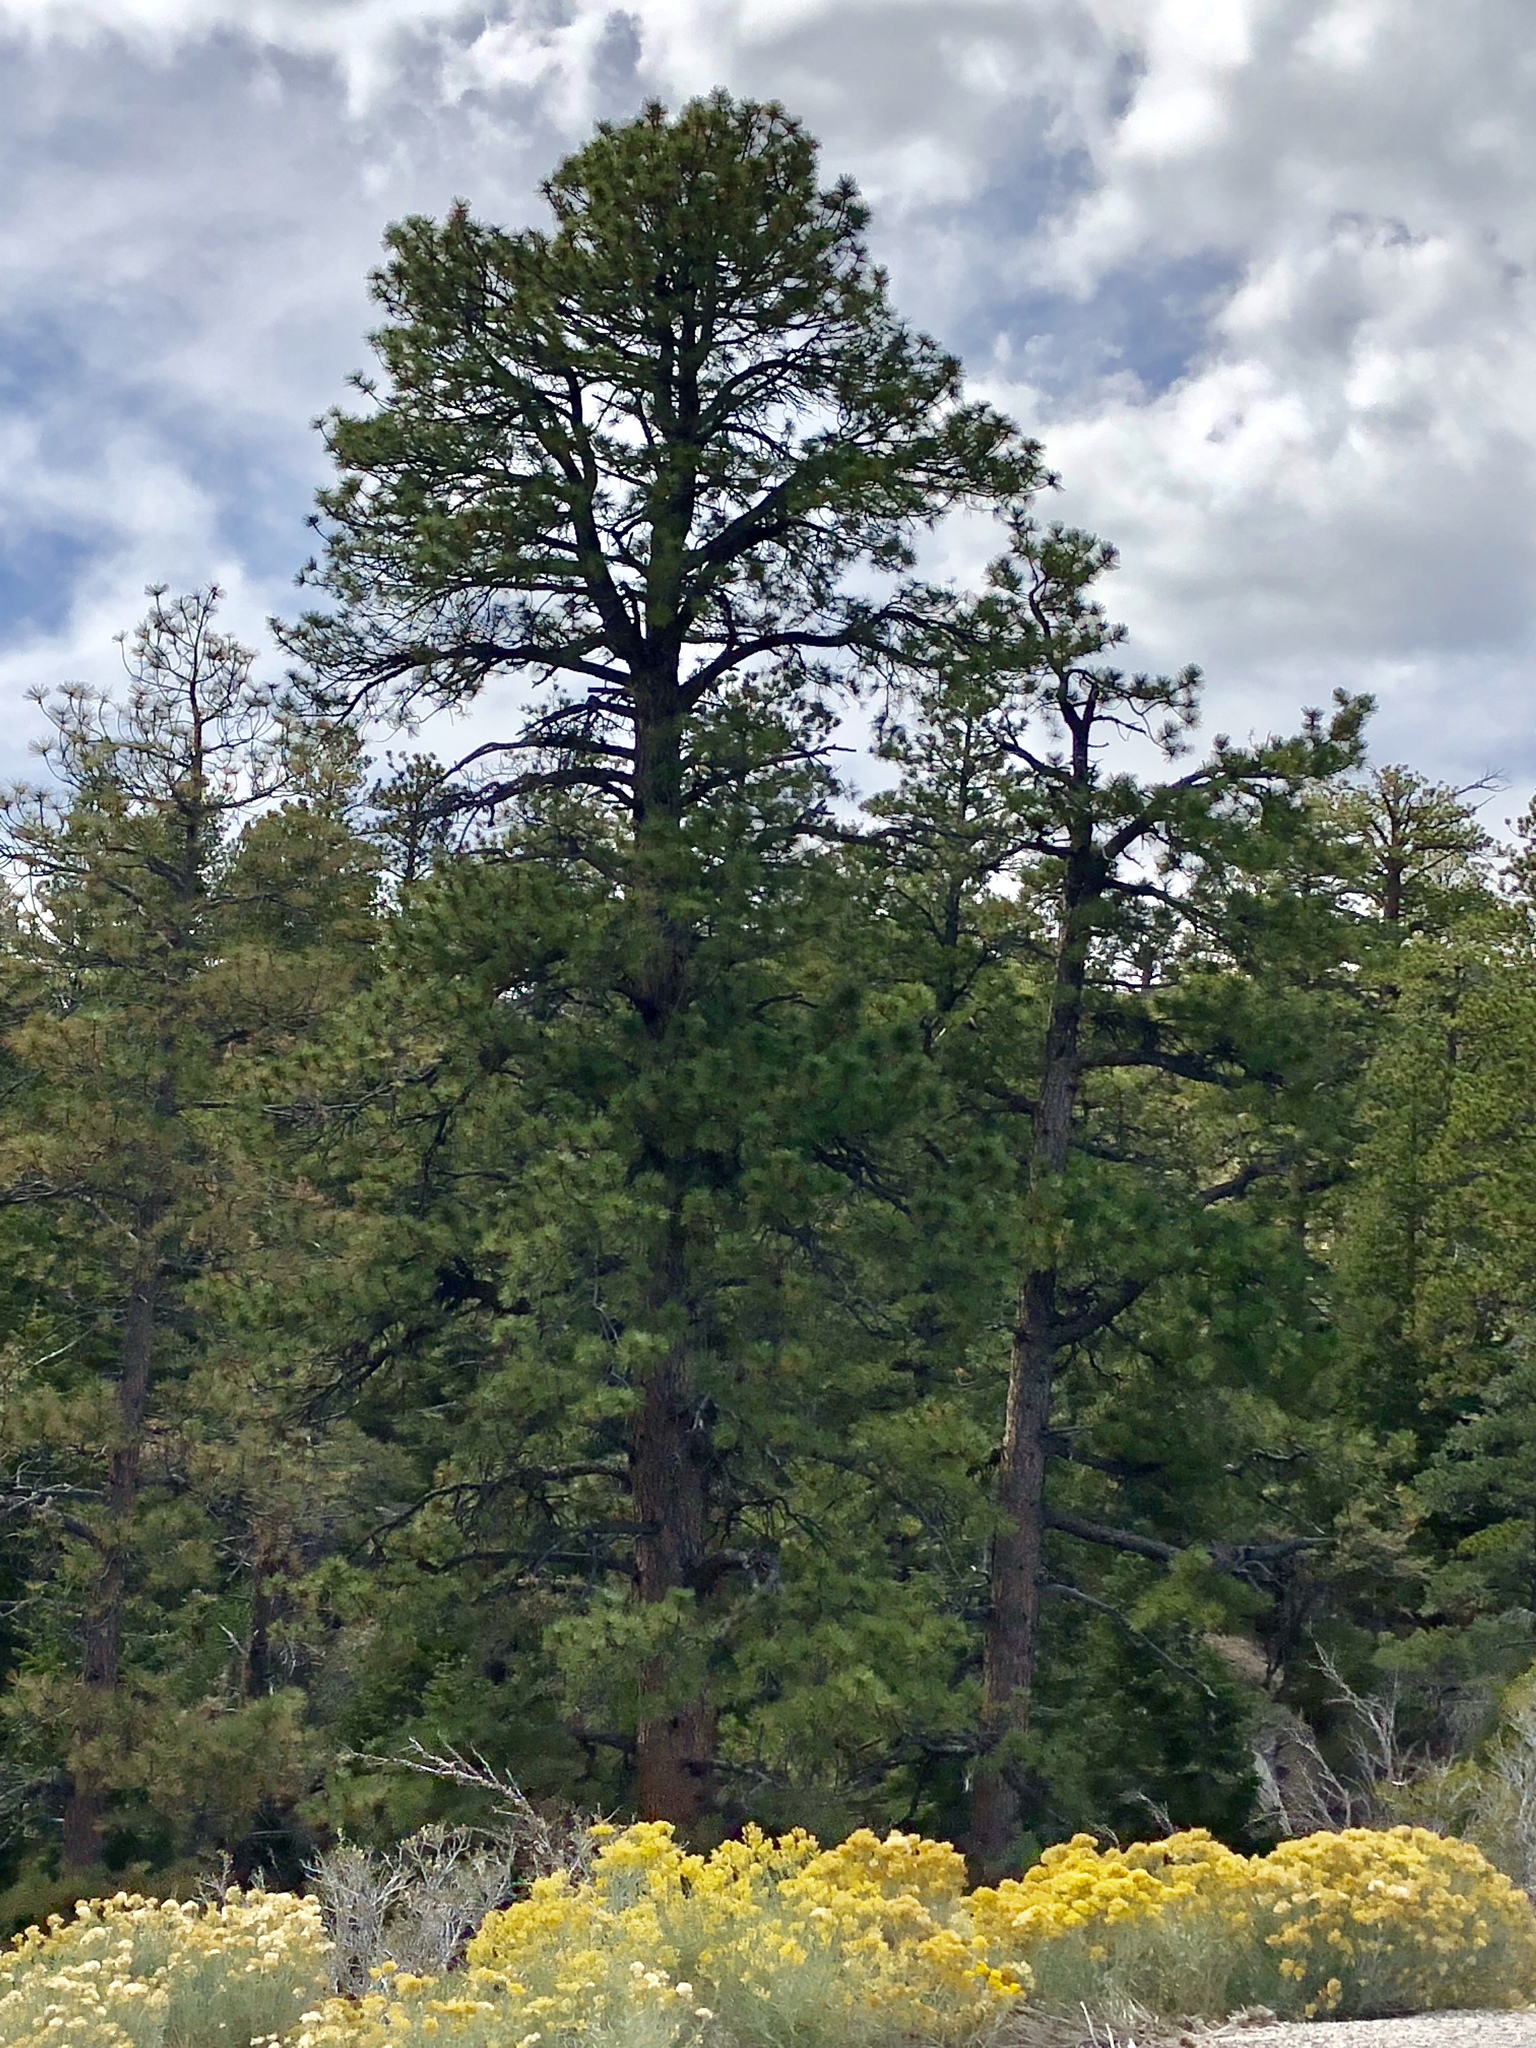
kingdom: Plantae
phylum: Tracheophyta
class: Pinopsida
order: Pinales
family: Pinaceae
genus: Pinus
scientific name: Pinus ponderosa
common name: Western yellow-pine
